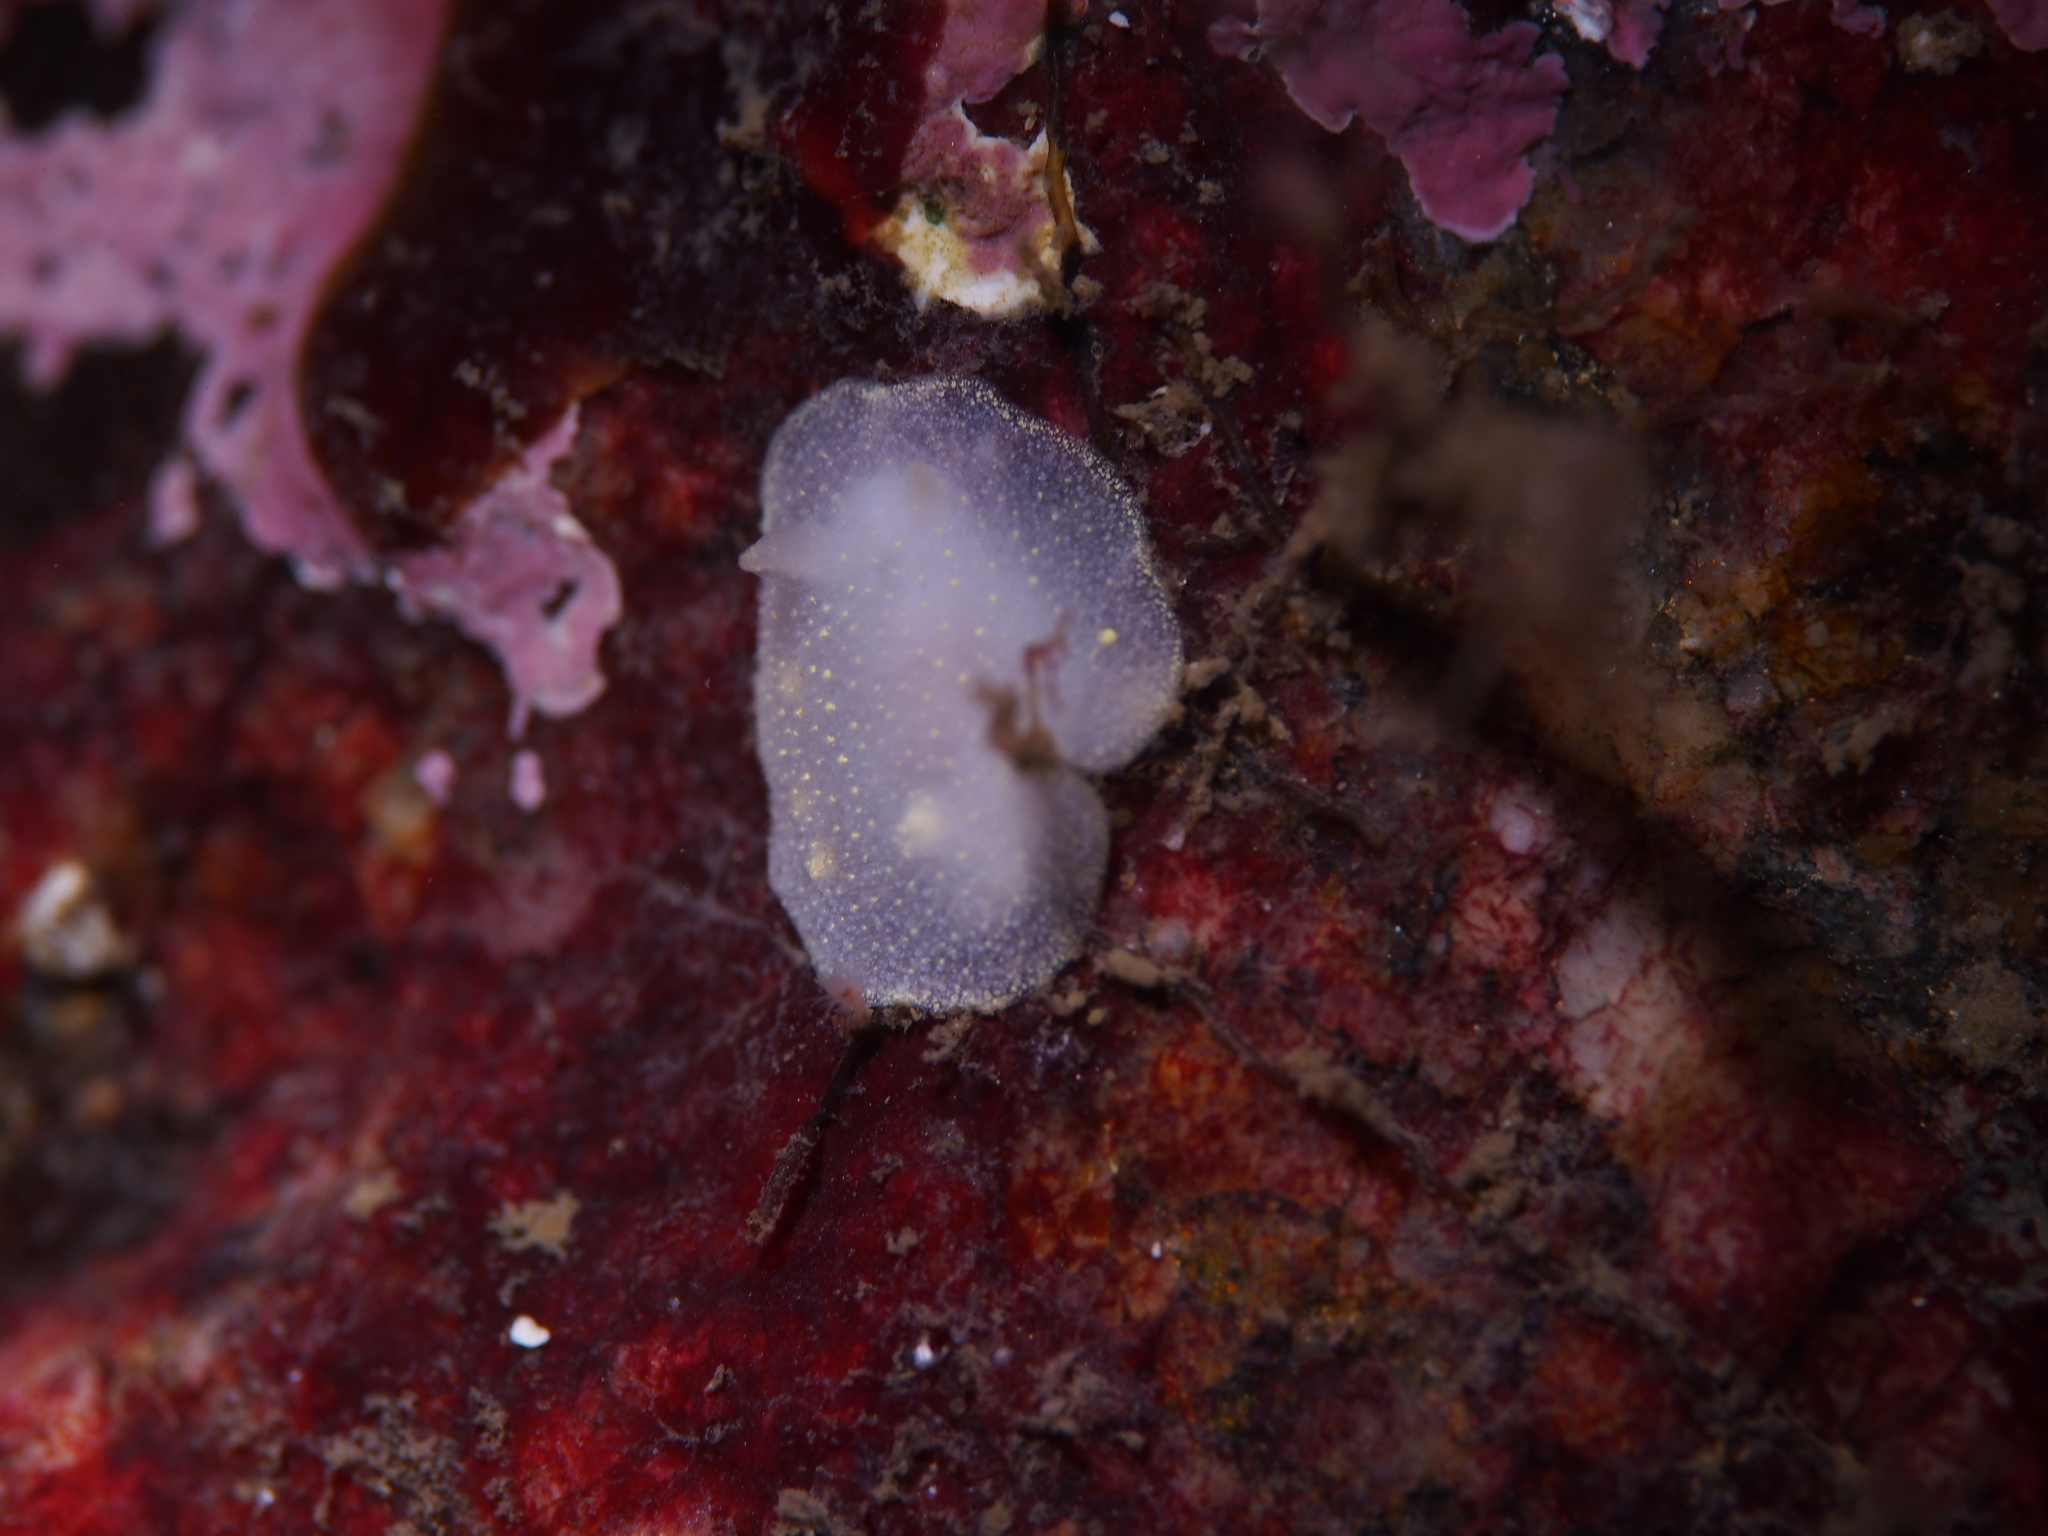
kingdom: Animalia
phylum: Mollusca
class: Gastropoda
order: Nudibranchia
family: Cadlinidae
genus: Cadlina
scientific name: Cadlina laevis
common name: White atlantic cadlina
